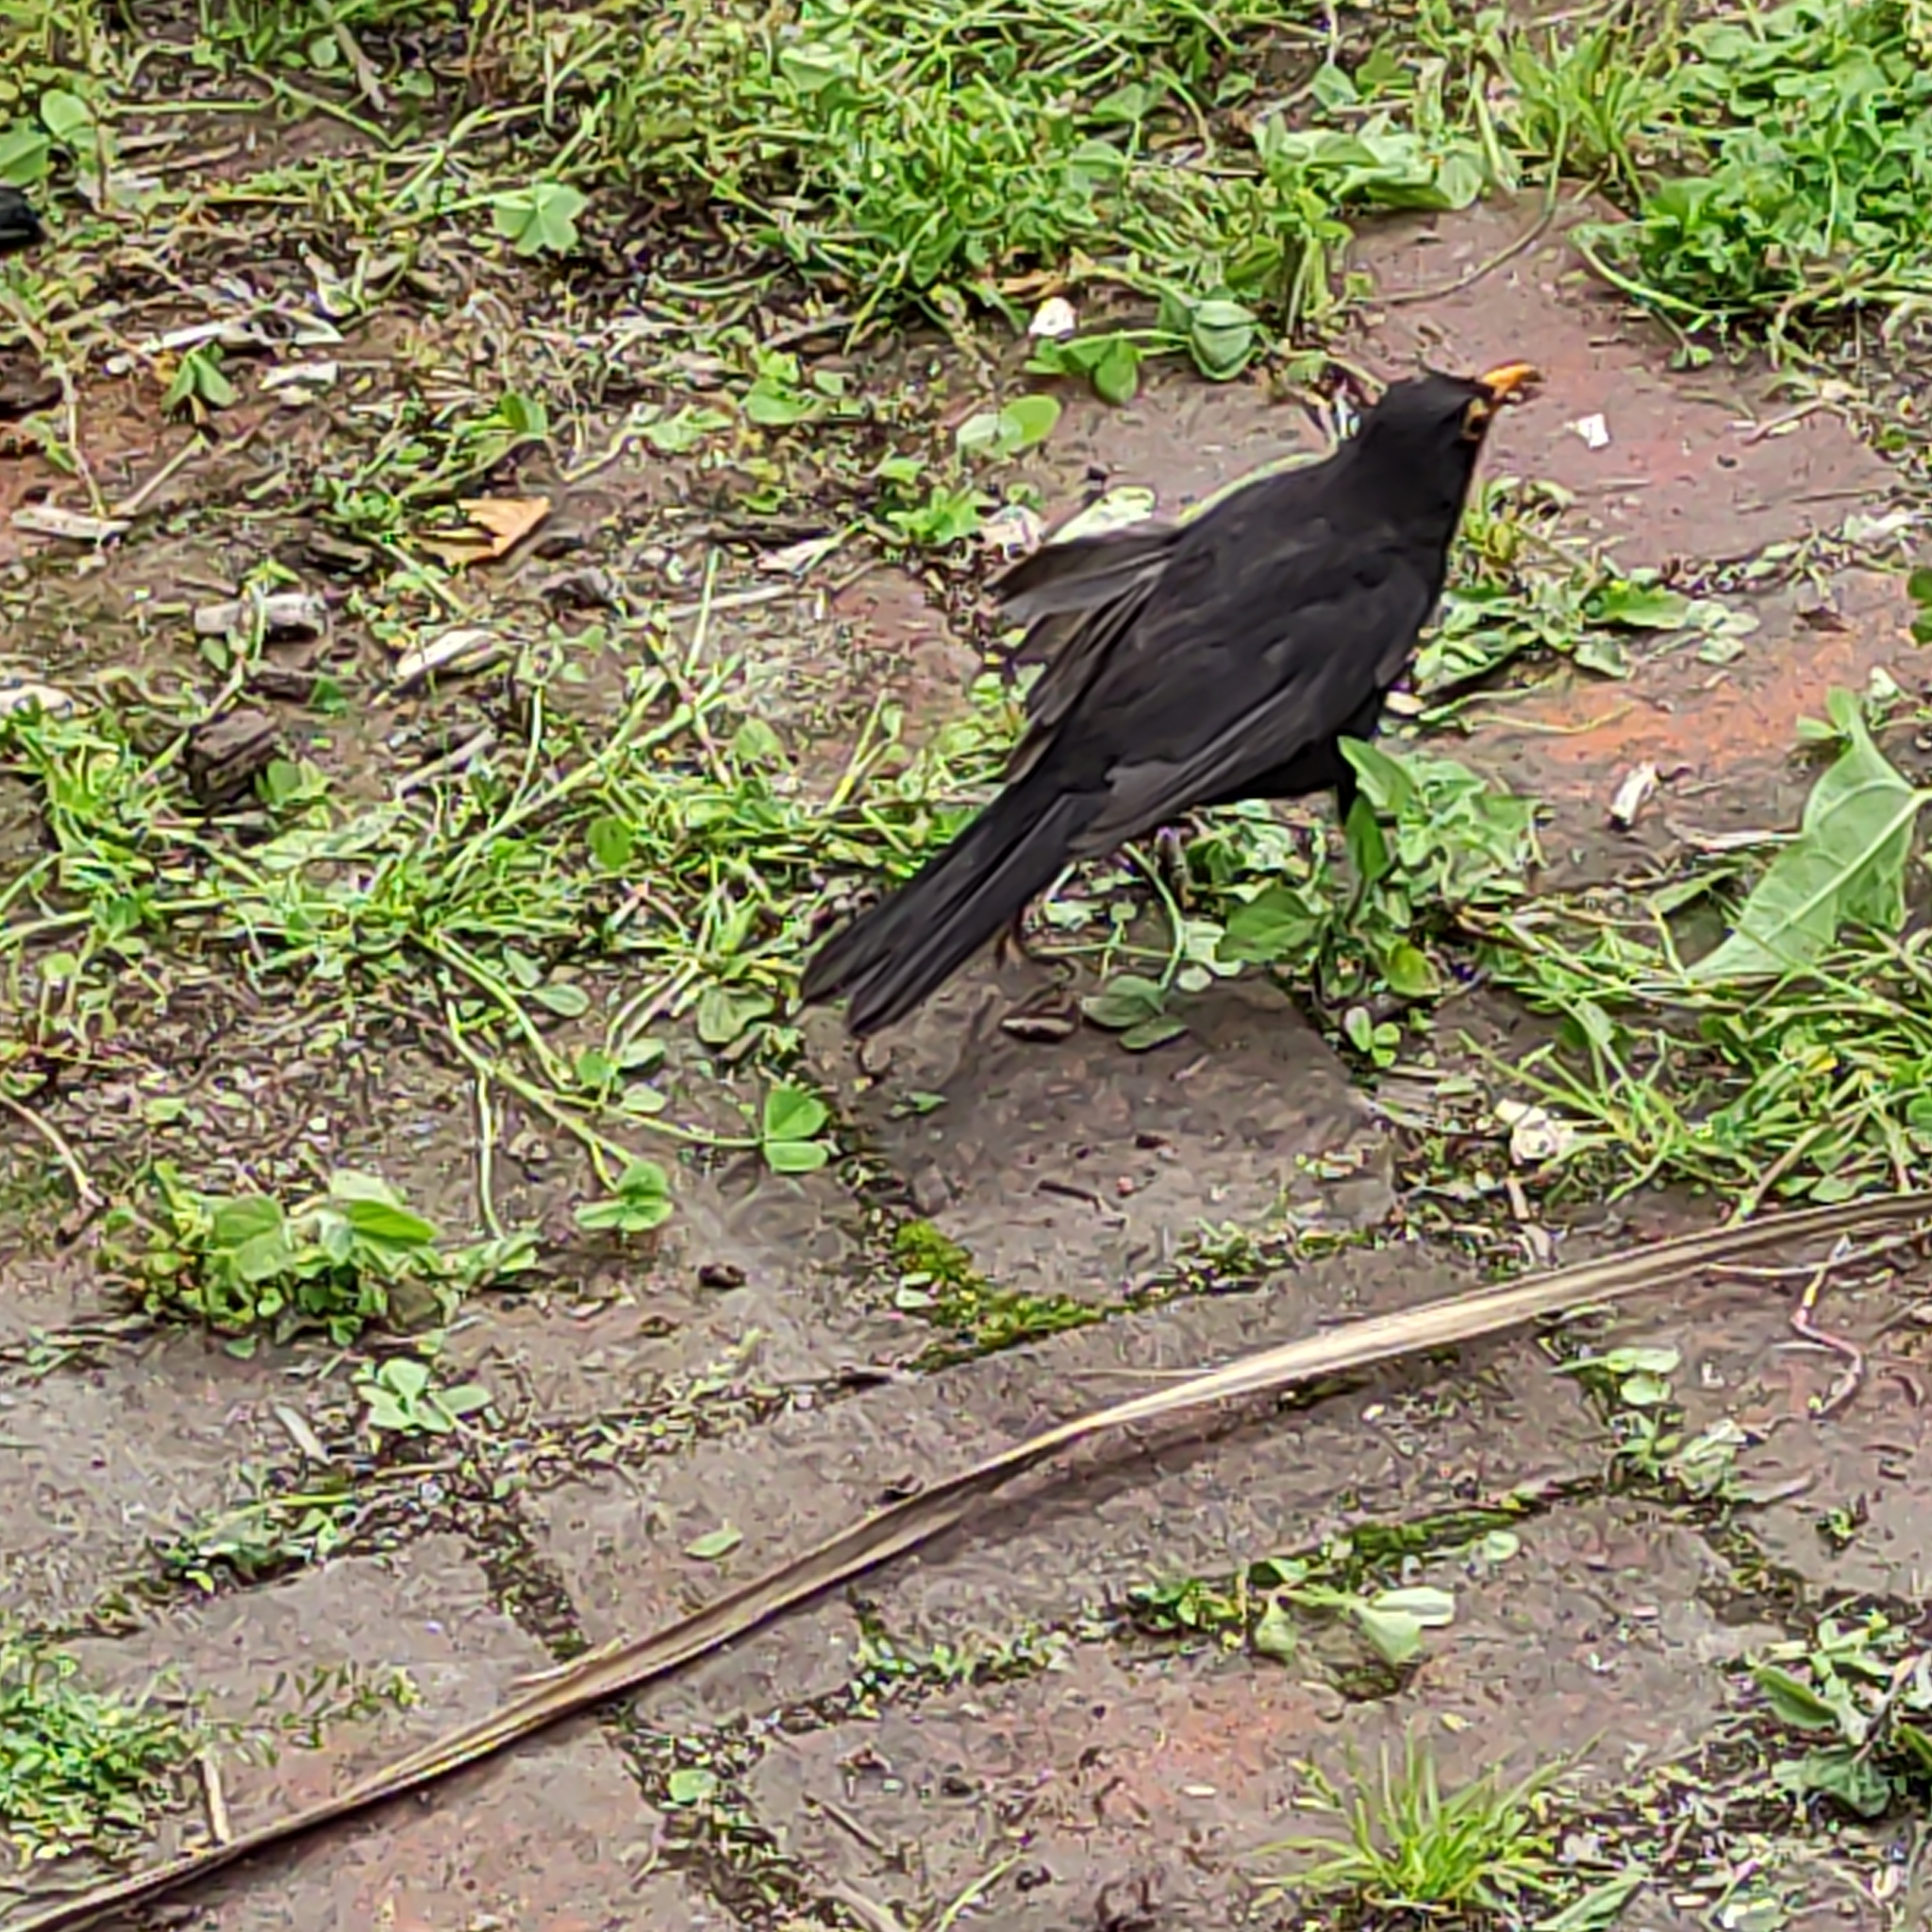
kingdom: Animalia
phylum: Chordata
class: Aves
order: Passeriformes
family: Turdidae
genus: Turdus
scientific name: Turdus merula
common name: Common blackbird
